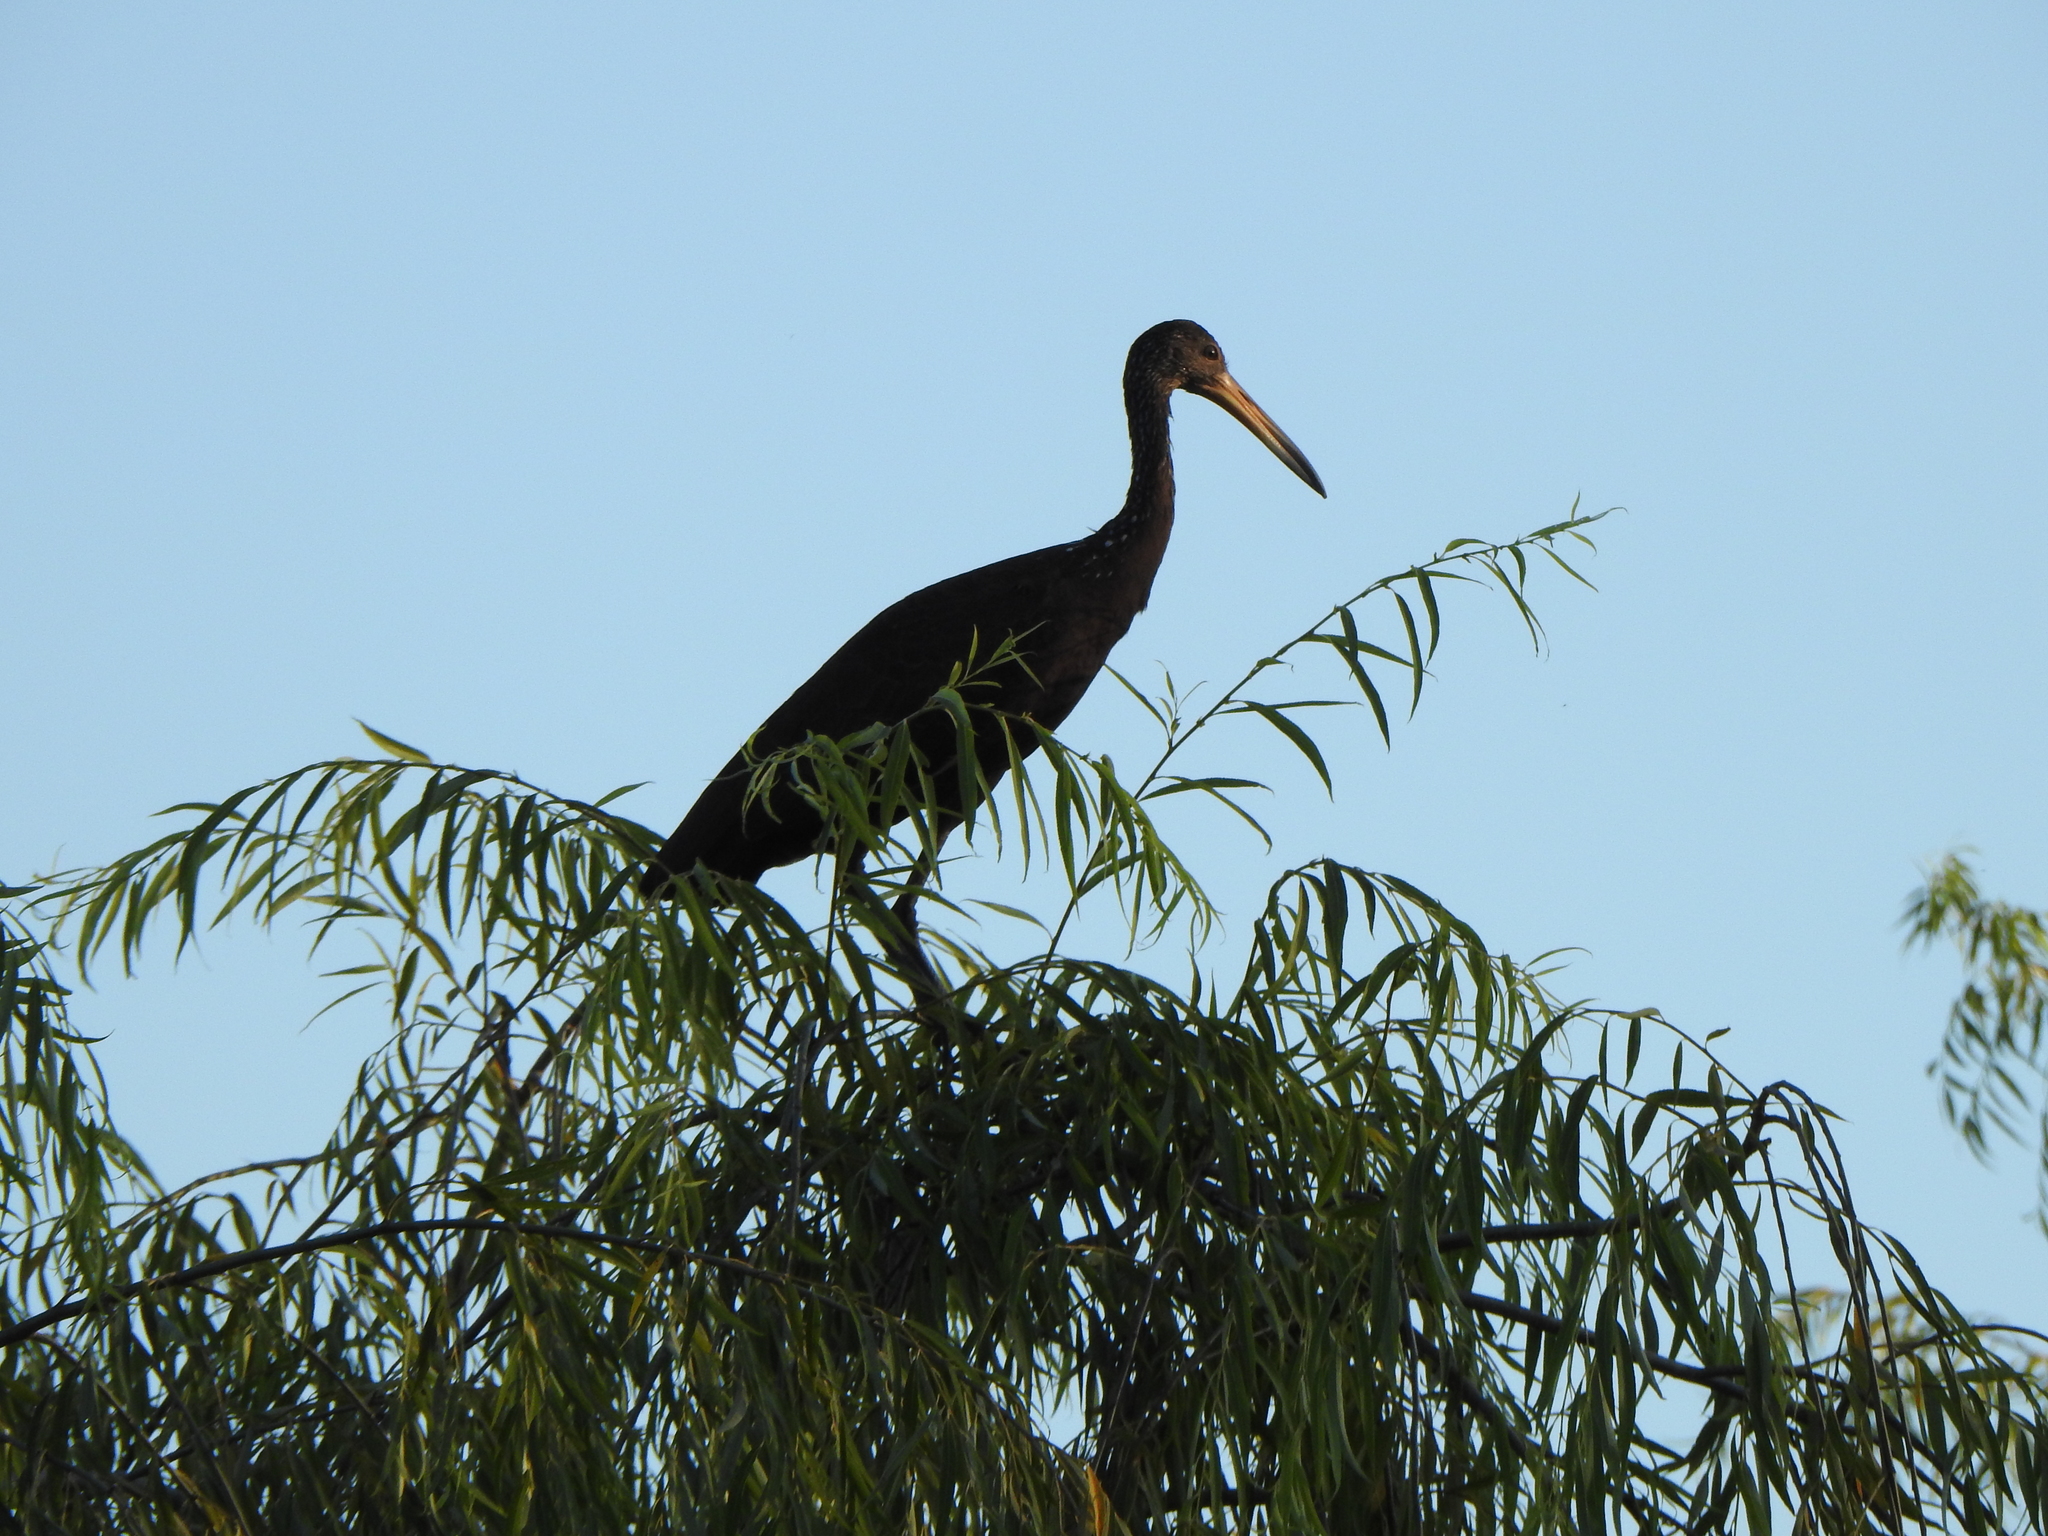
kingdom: Animalia
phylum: Chordata
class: Aves
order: Gruiformes
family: Aramidae
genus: Aramus
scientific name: Aramus guarauna
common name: Limpkin
